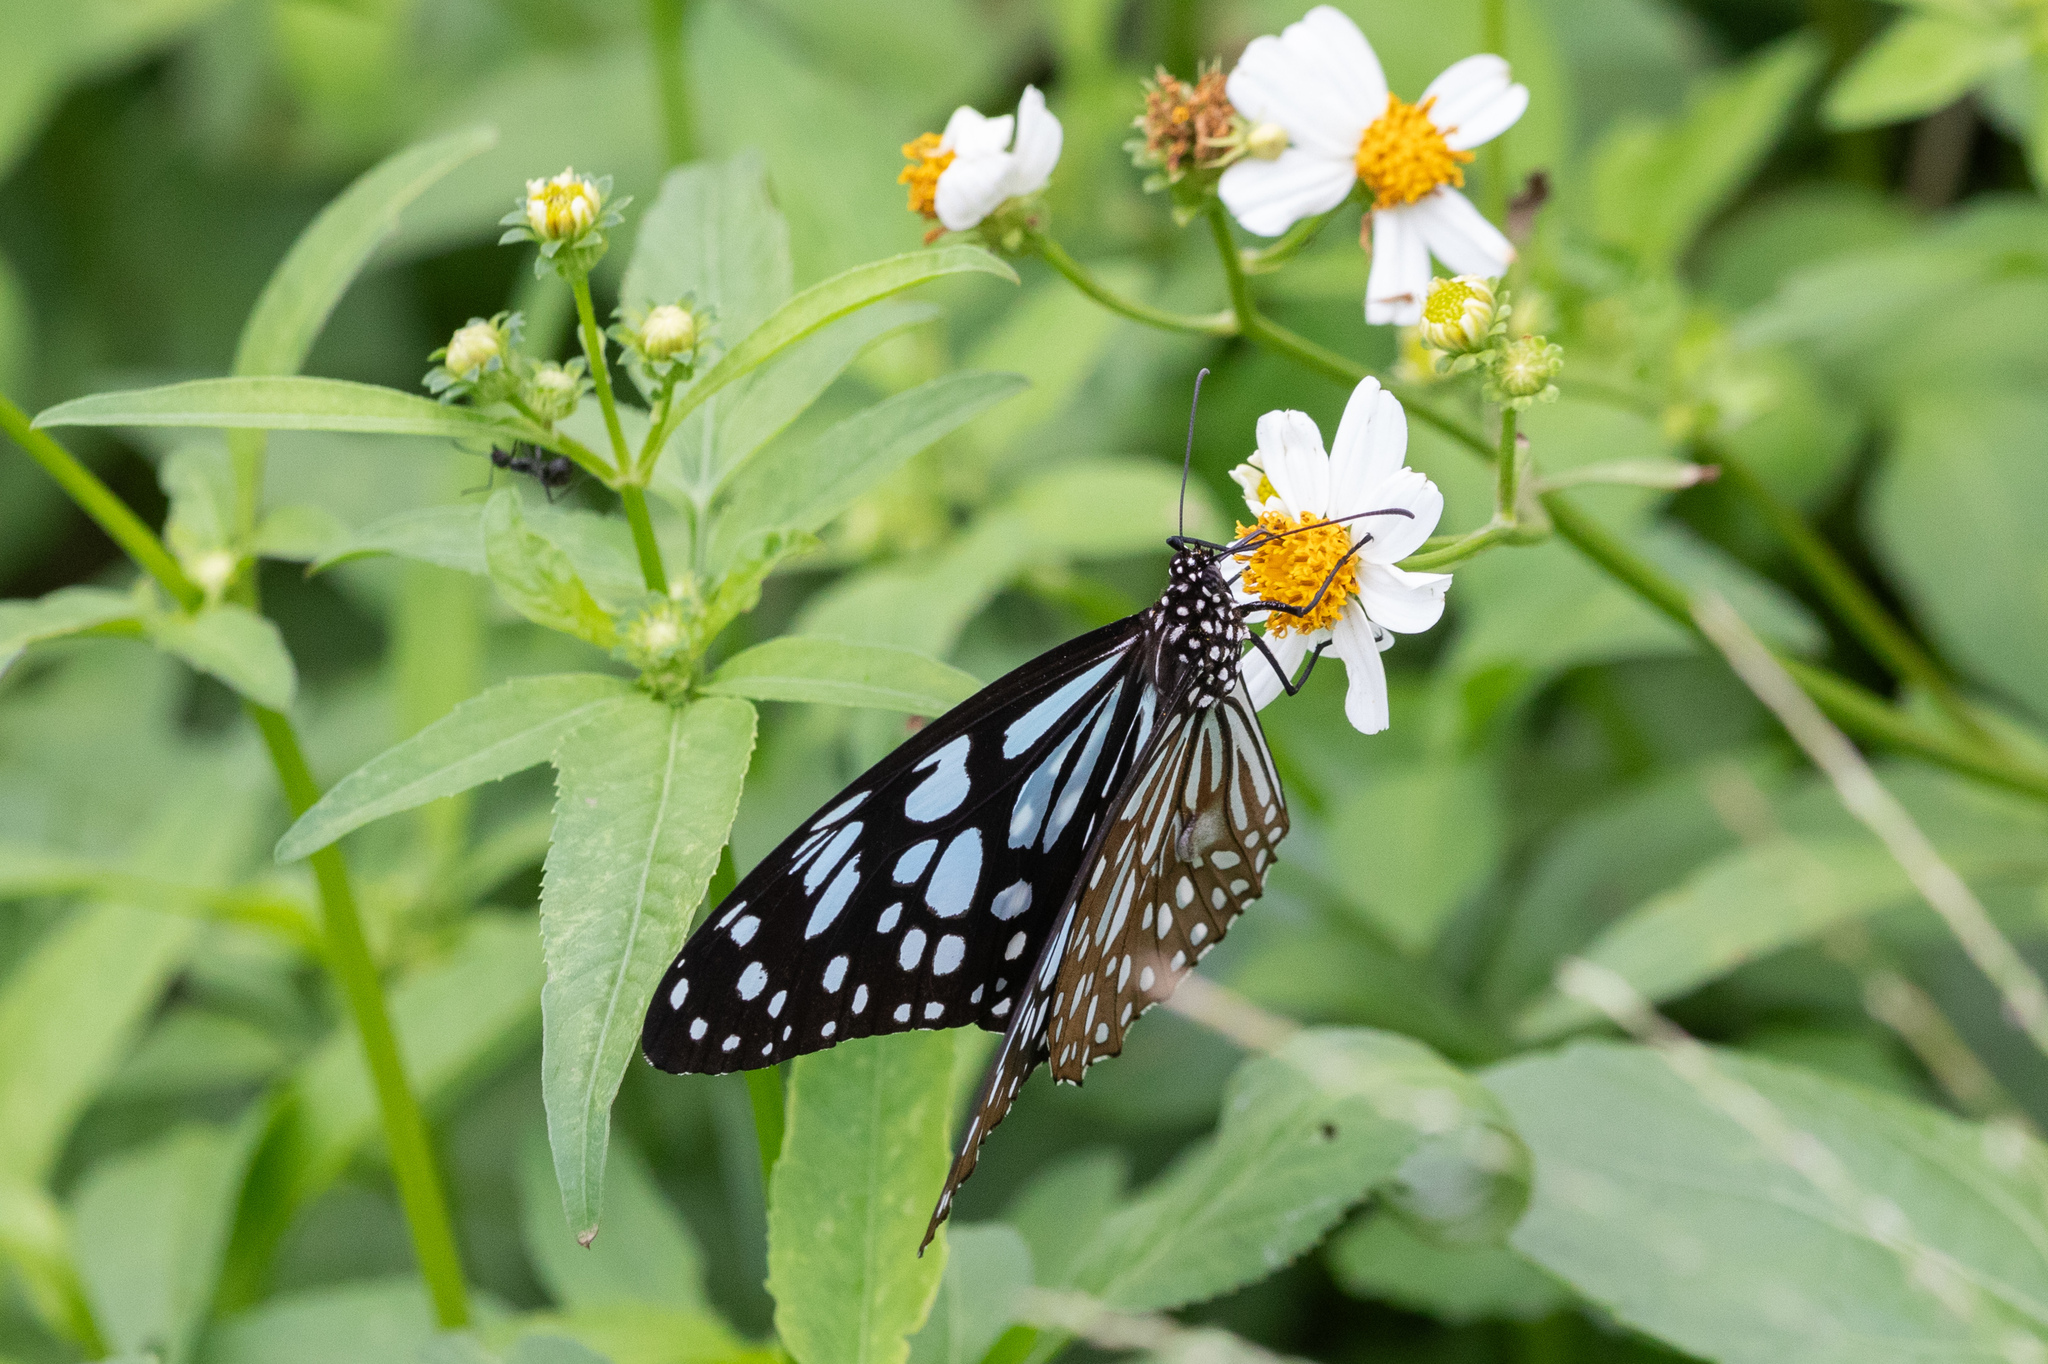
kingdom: Animalia
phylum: Arthropoda
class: Insecta
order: Lepidoptera
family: Nymphalidae
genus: Tirumala
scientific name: Tirumala limniace
